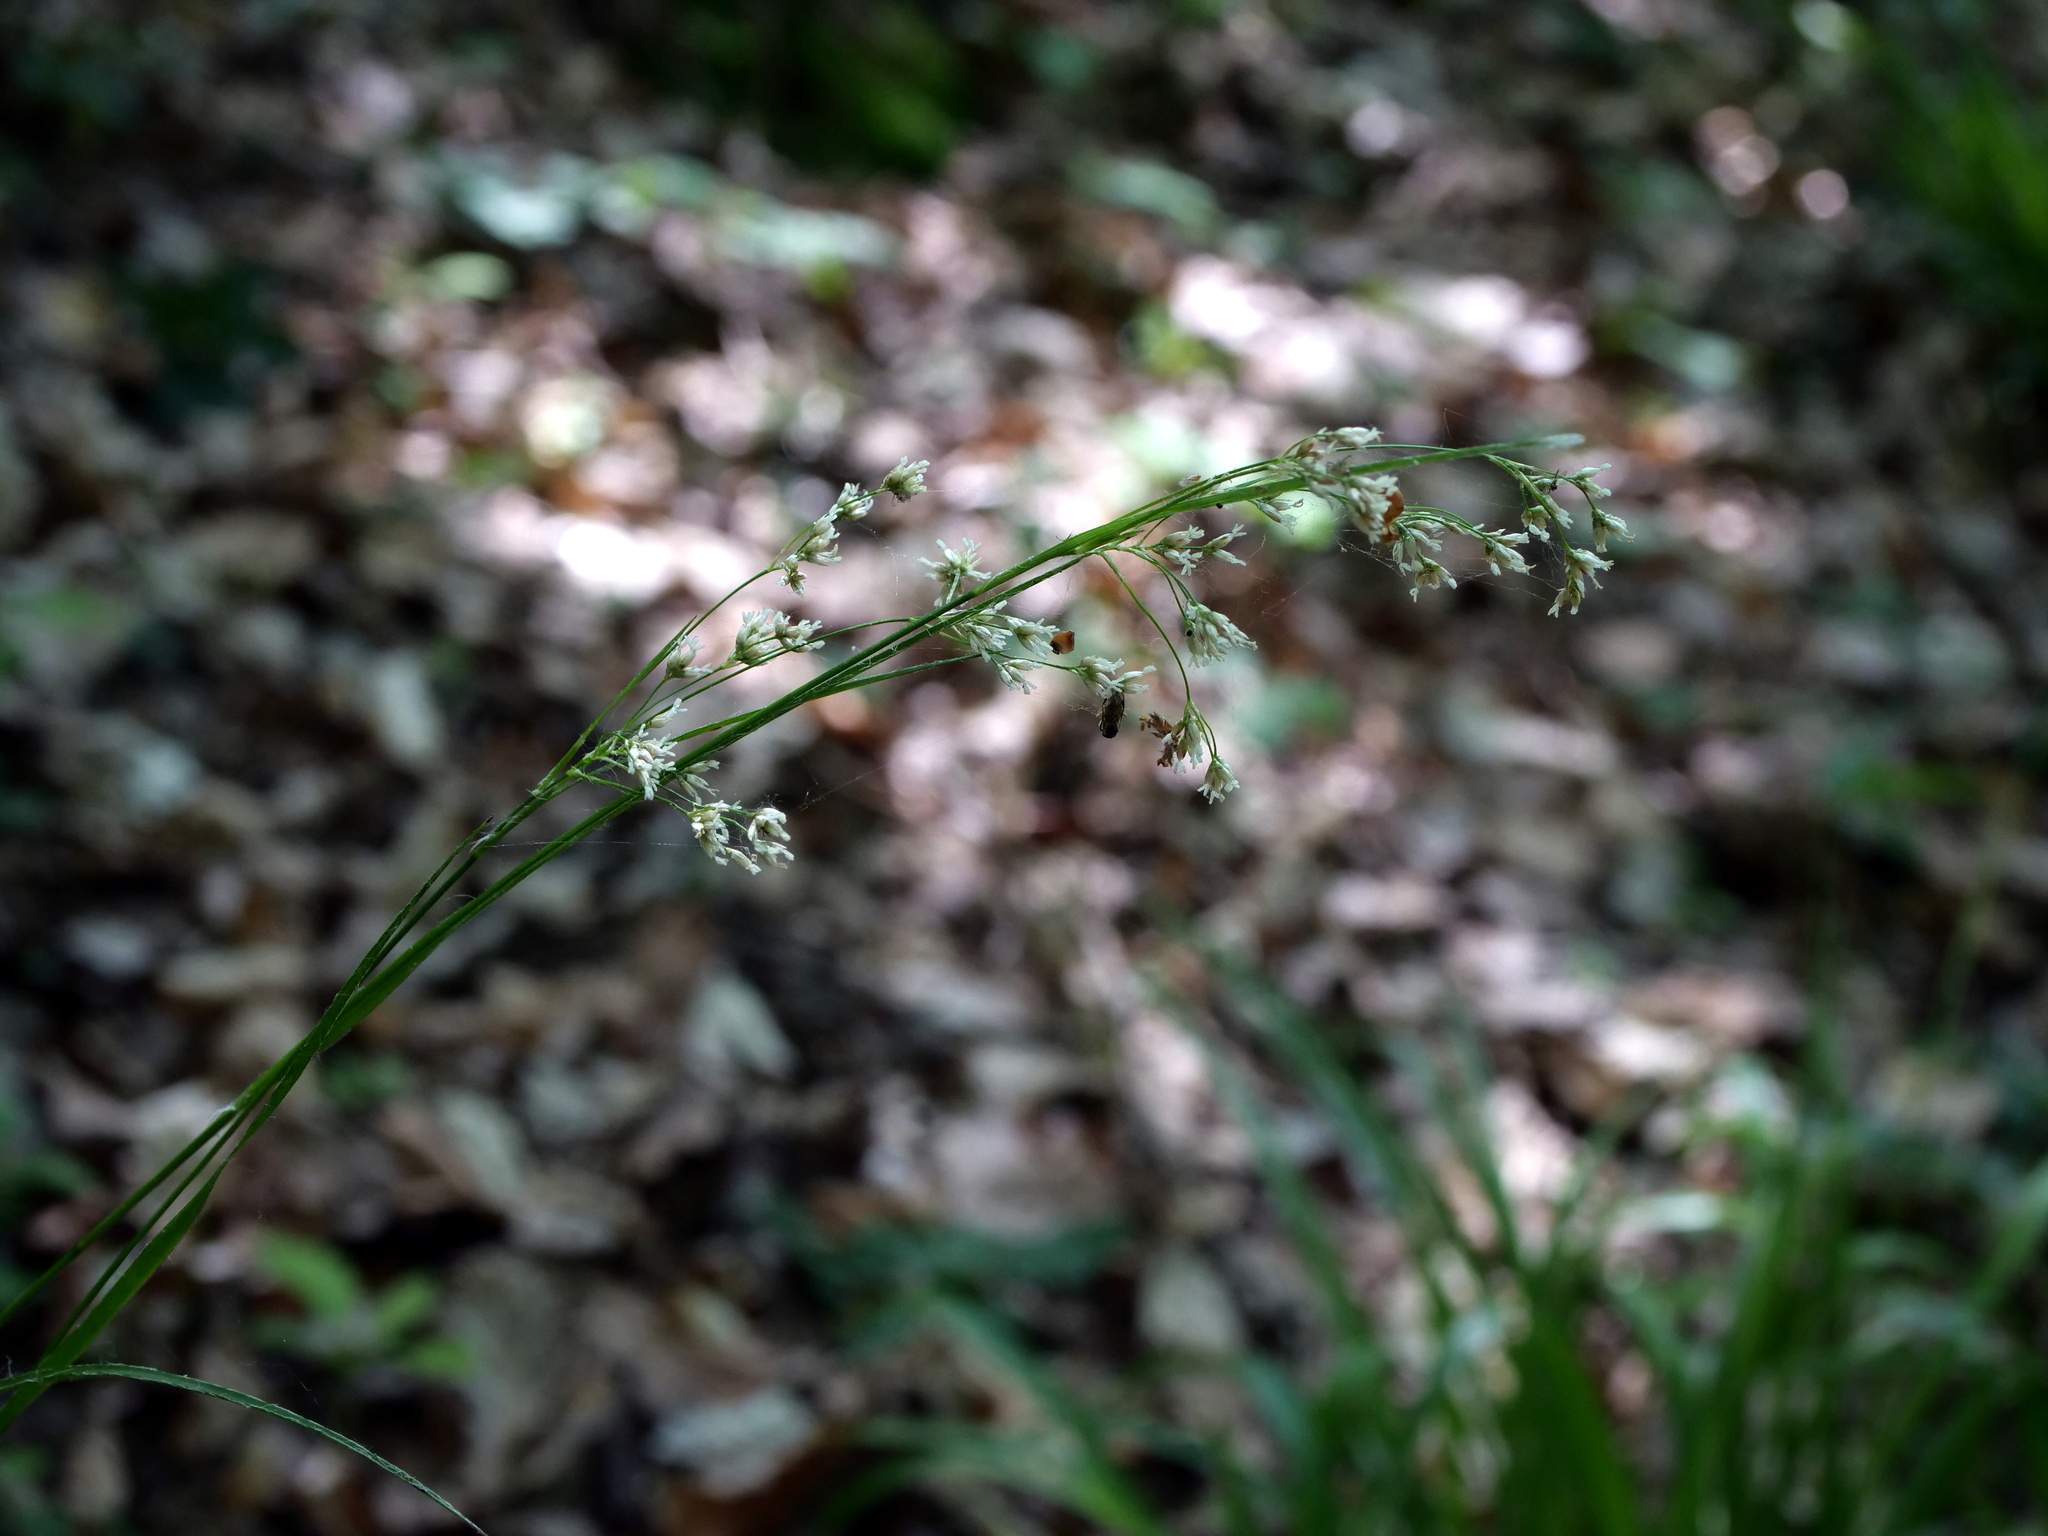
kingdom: Plantae
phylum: Tracheophyta
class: Liliopsida
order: Poales
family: Juncaceae
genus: Luzula
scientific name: Luzula luzuloides
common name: White wood-rush
